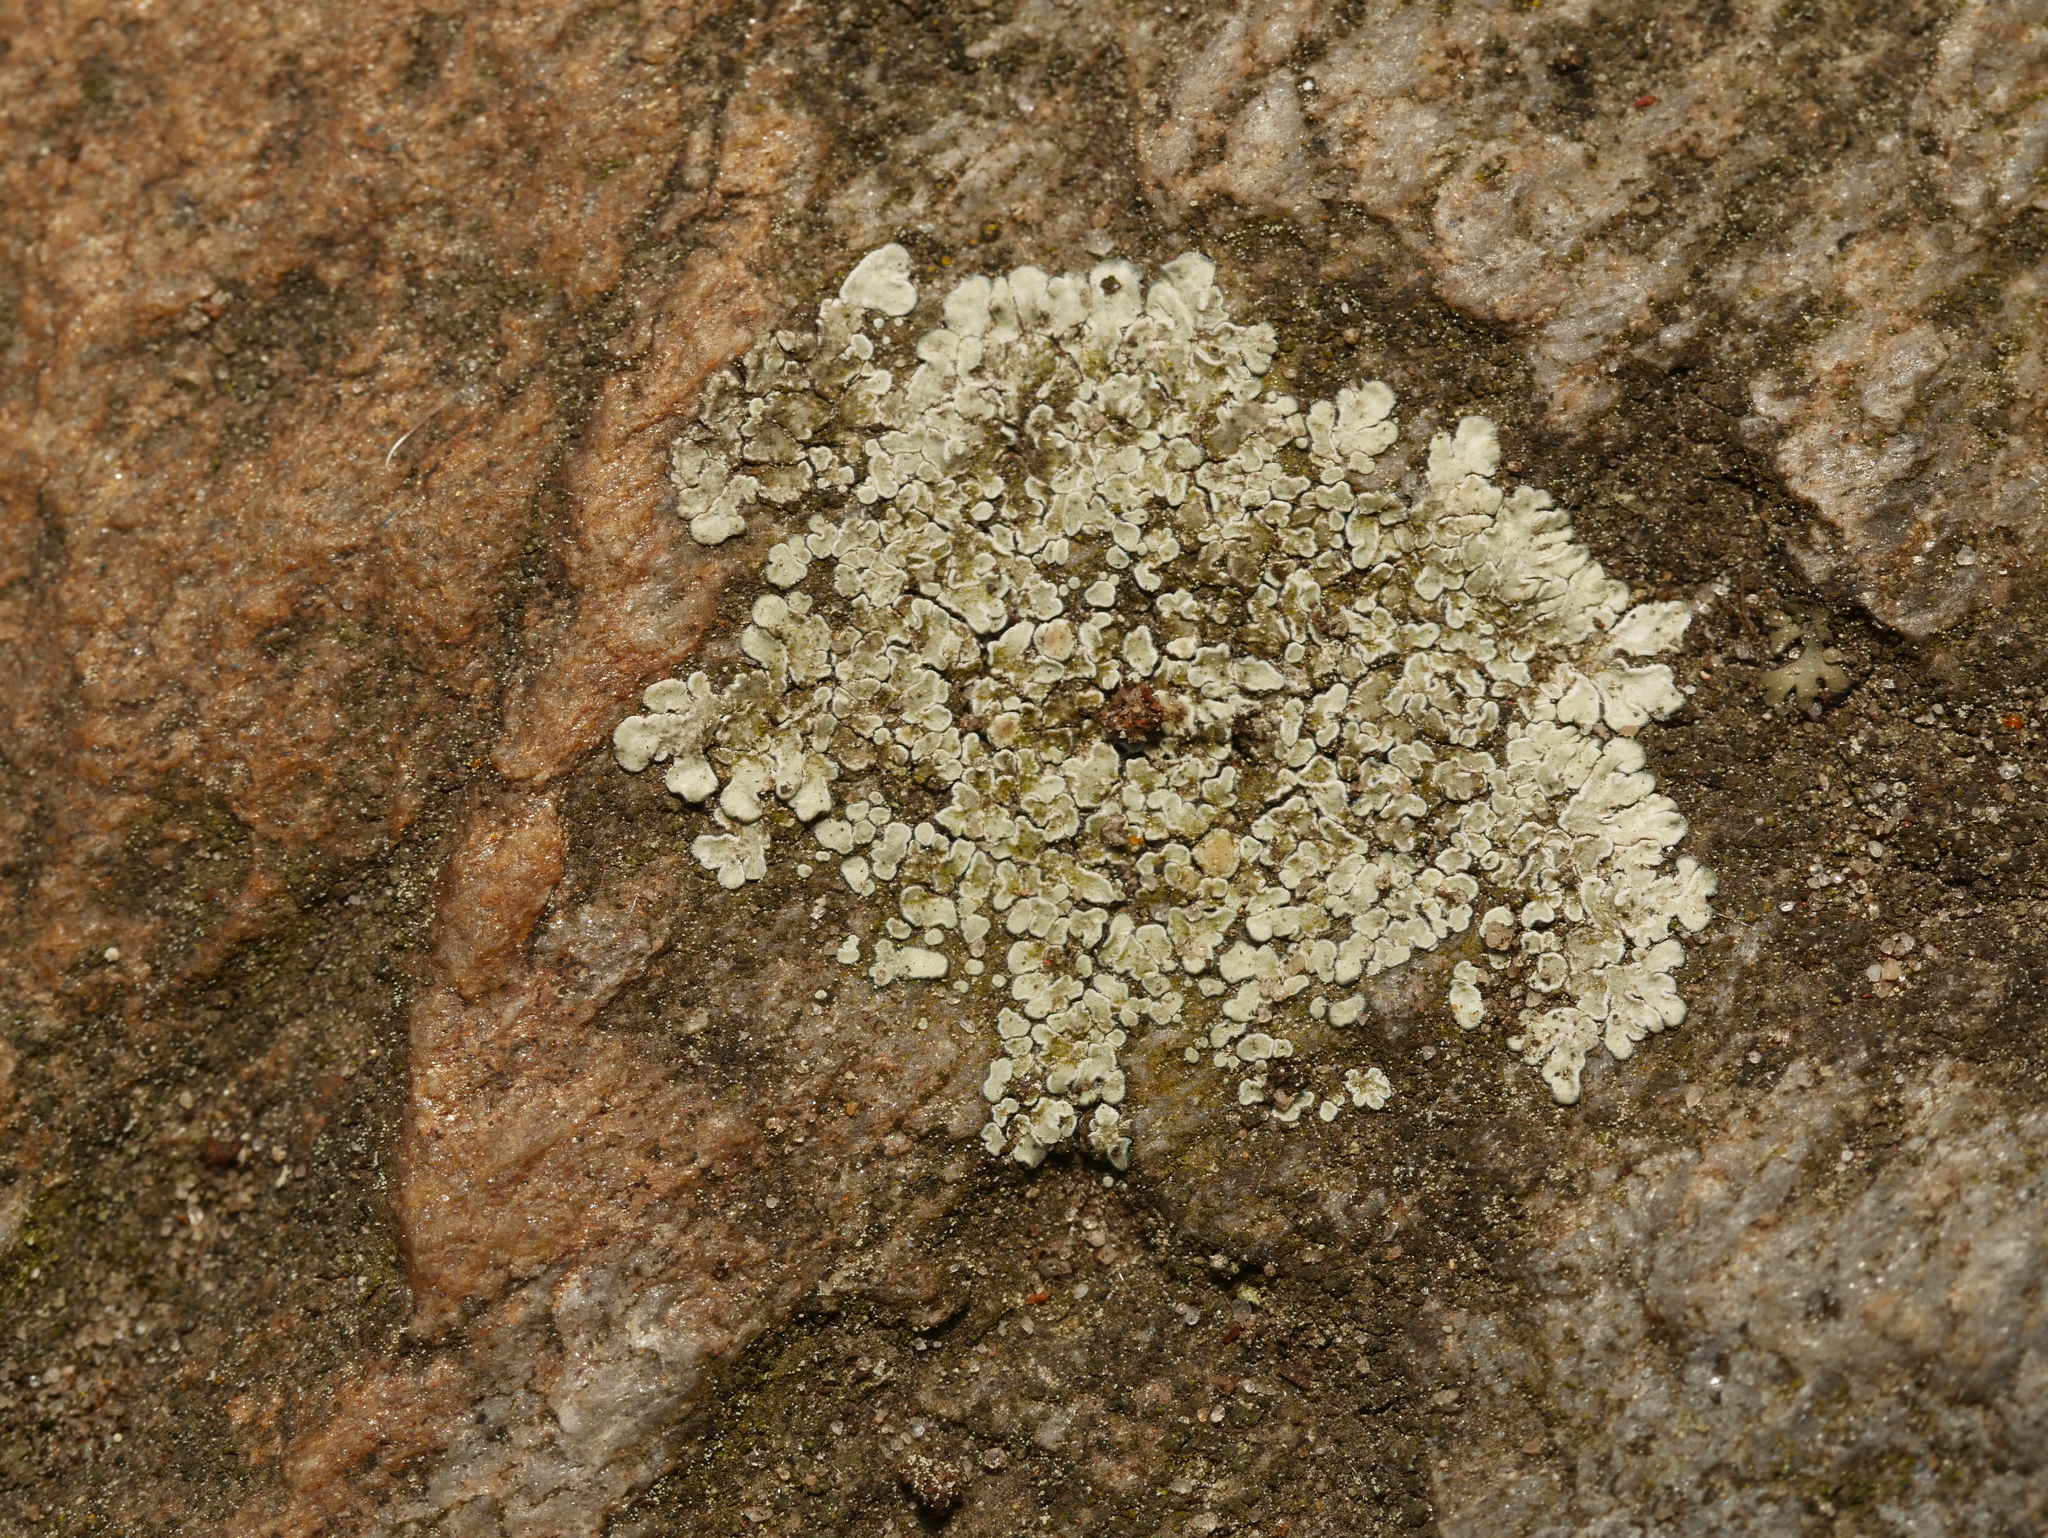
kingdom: Fungi
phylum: Ascomycota
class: Lecanoromycetes
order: Lecanorales
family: Lecanoraceae
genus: Protoparmeliopsis
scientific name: Protoparmeliopsis muralis
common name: Stonewall rim lichen
